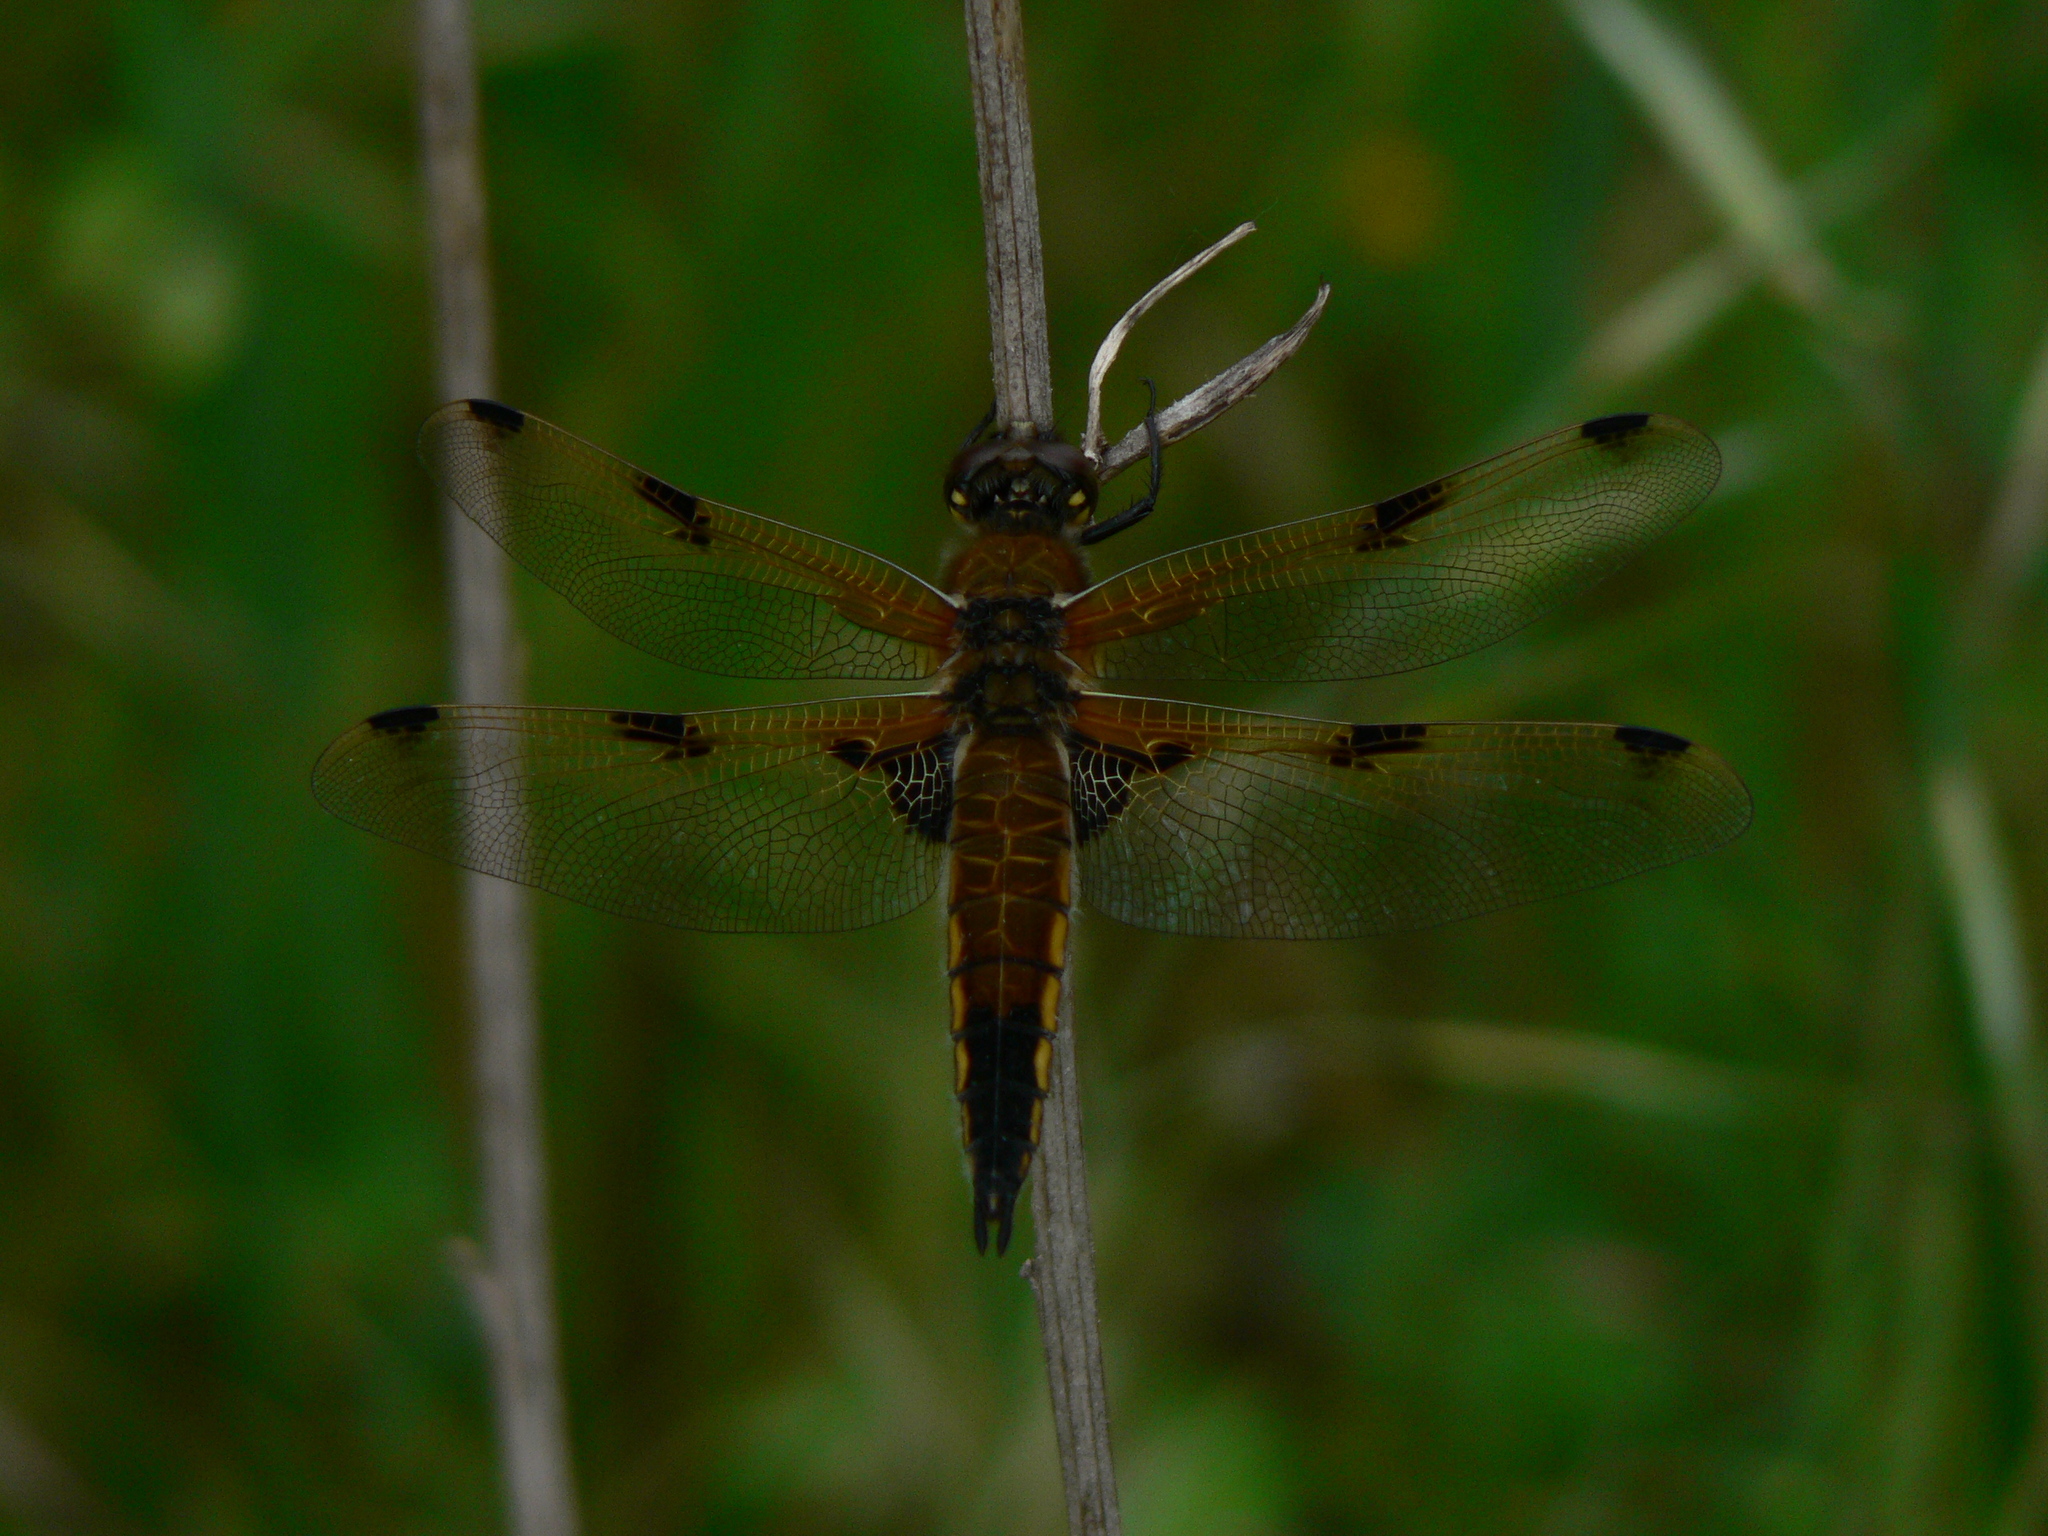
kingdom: Animalia
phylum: Arthropoda
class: Insecta
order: Odonata
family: Libellulidae
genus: Libellula
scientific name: Libellula quadrimaculata
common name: Four-spotted chaser
